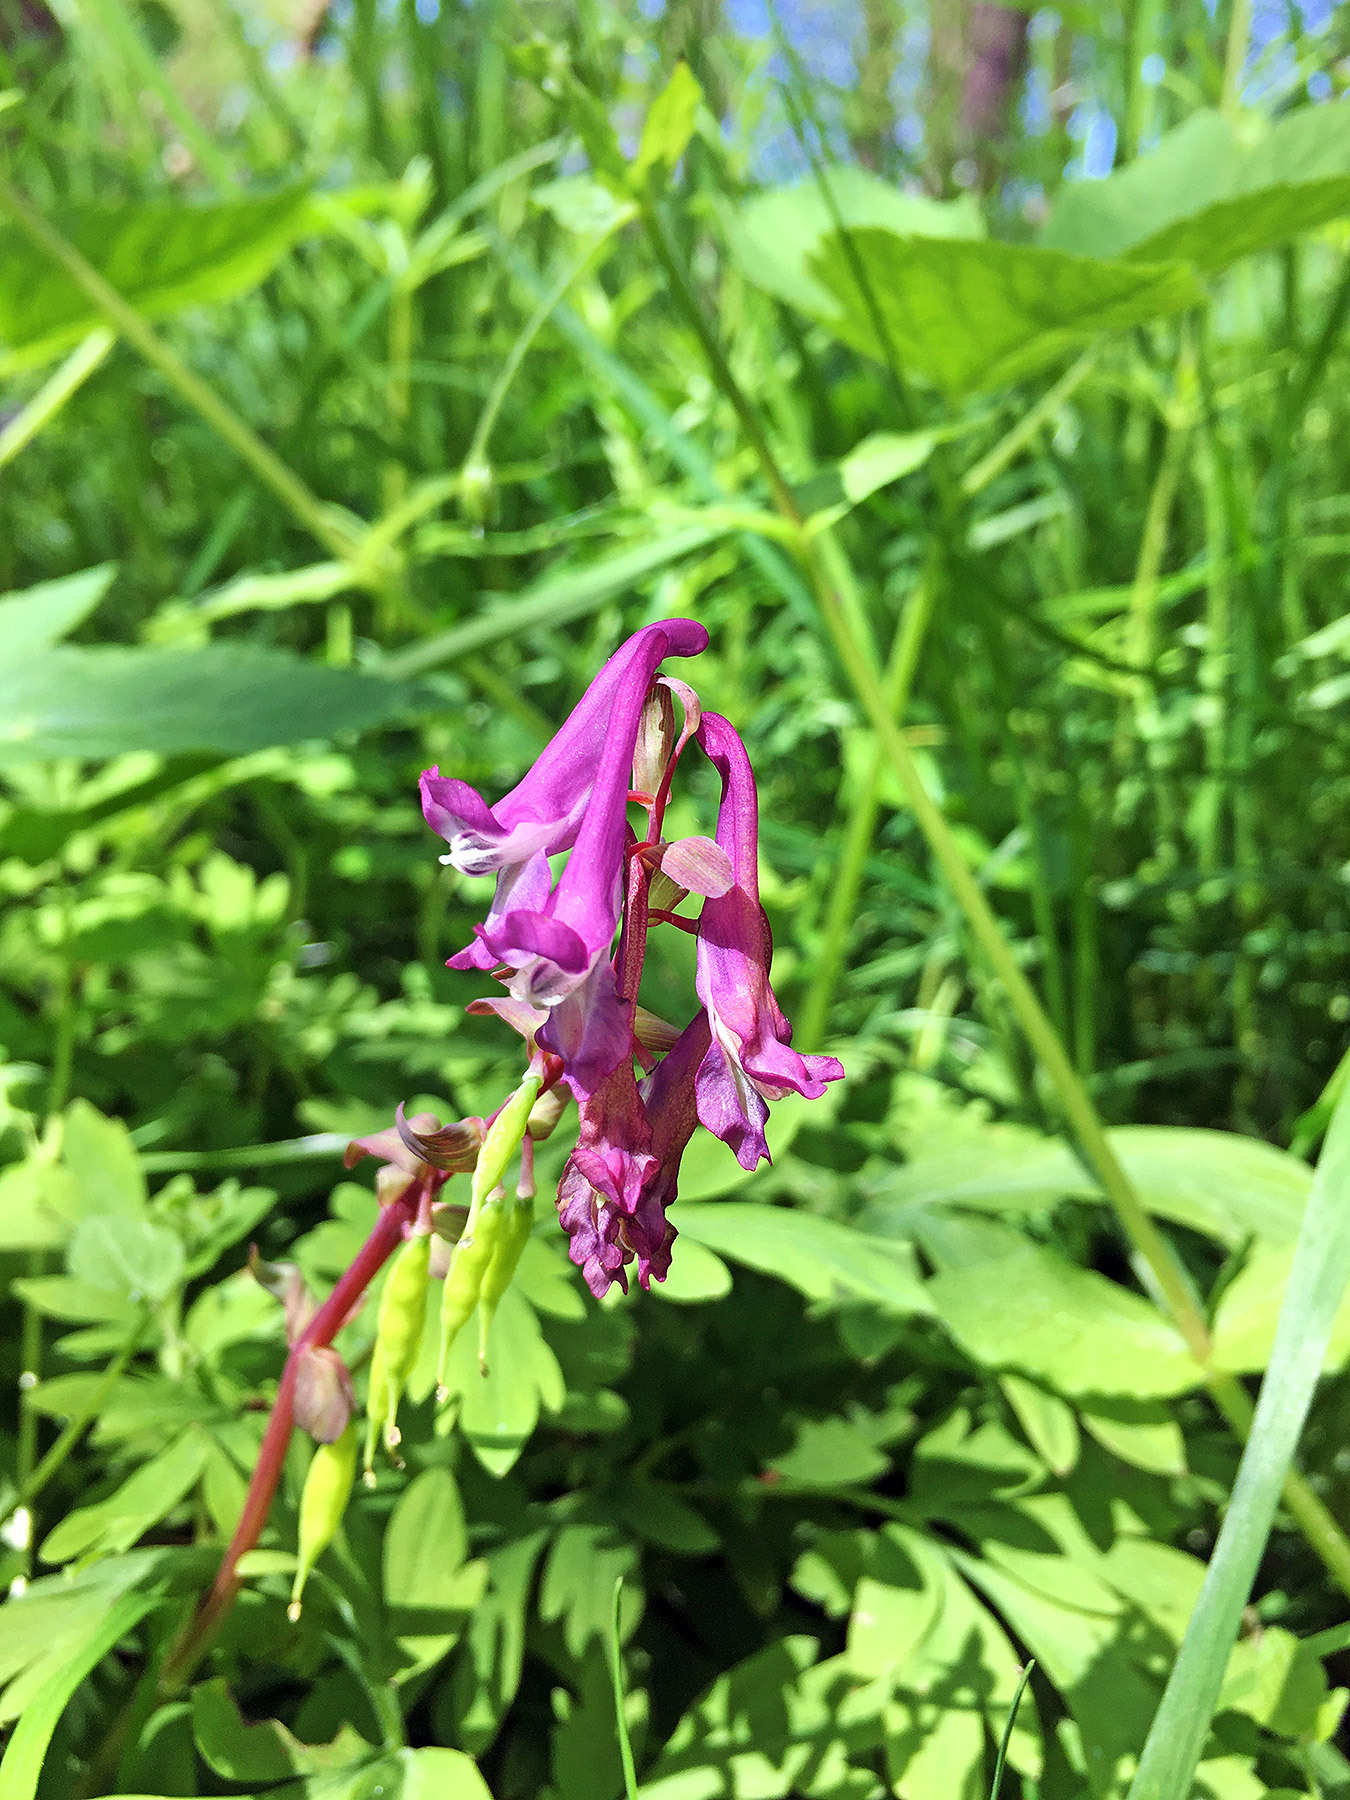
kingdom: Plantae
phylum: Tracheophyta
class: Magnoliopsida
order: Ranunculales
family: Papaveraceae
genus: Corydalis
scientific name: Corydalis cava
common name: Hollowroot
